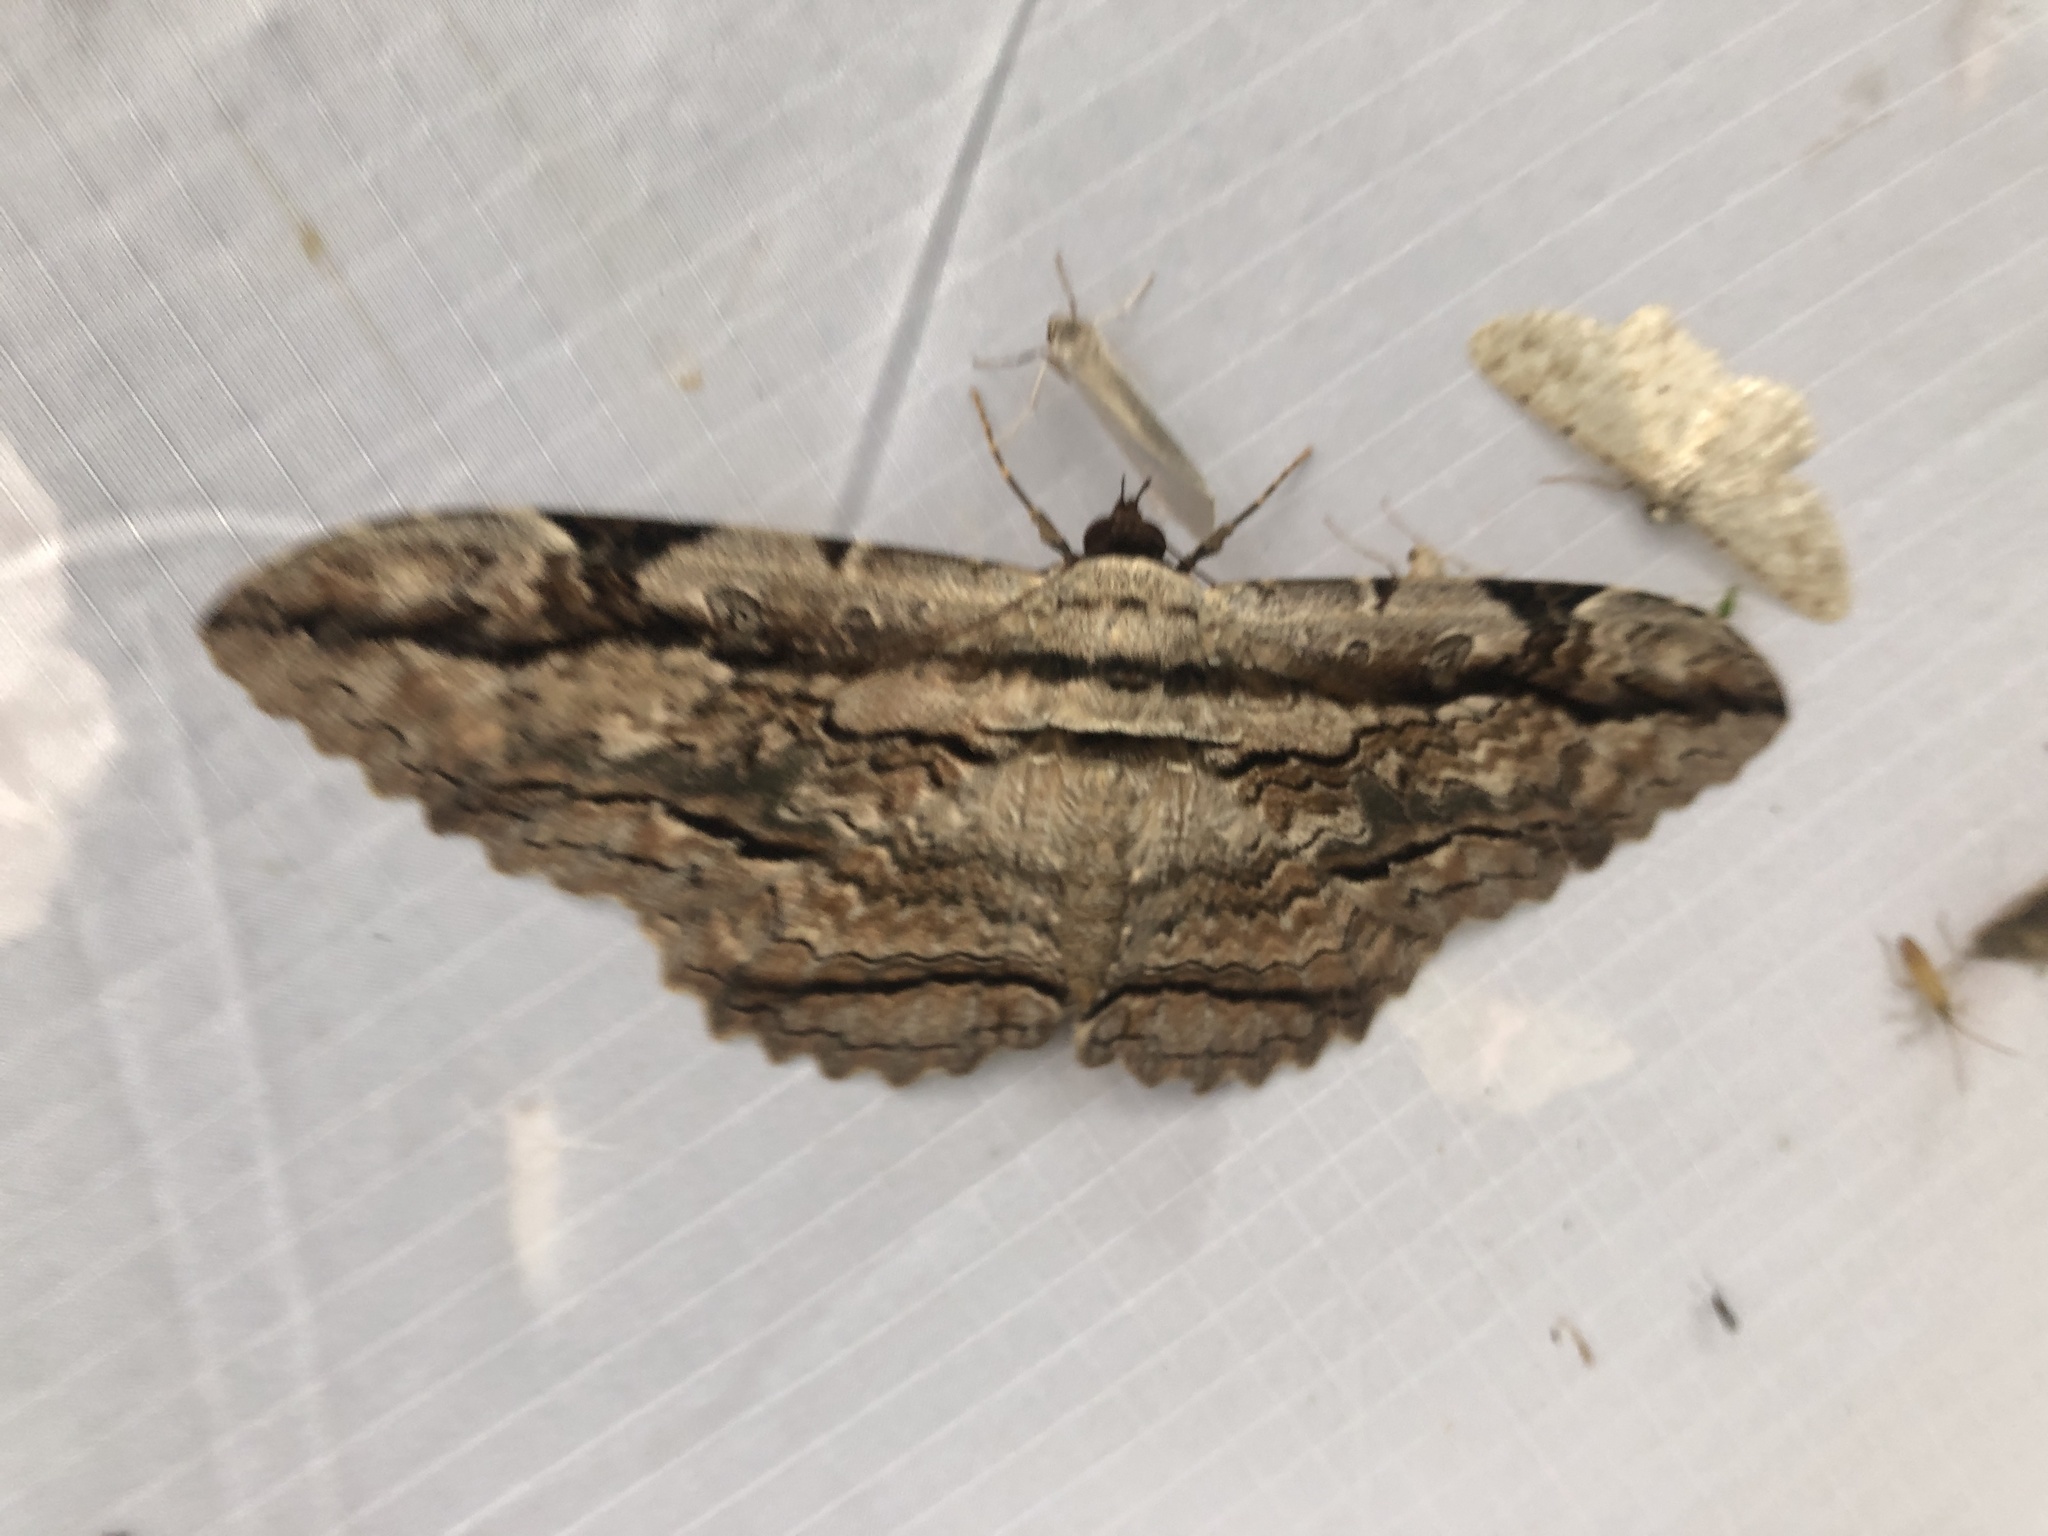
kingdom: Animalia
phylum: Arthropoda
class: Insecta
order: Lepidoptera
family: Erebidae
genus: Thysania
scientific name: Thysania zenobia
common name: Owl moth
